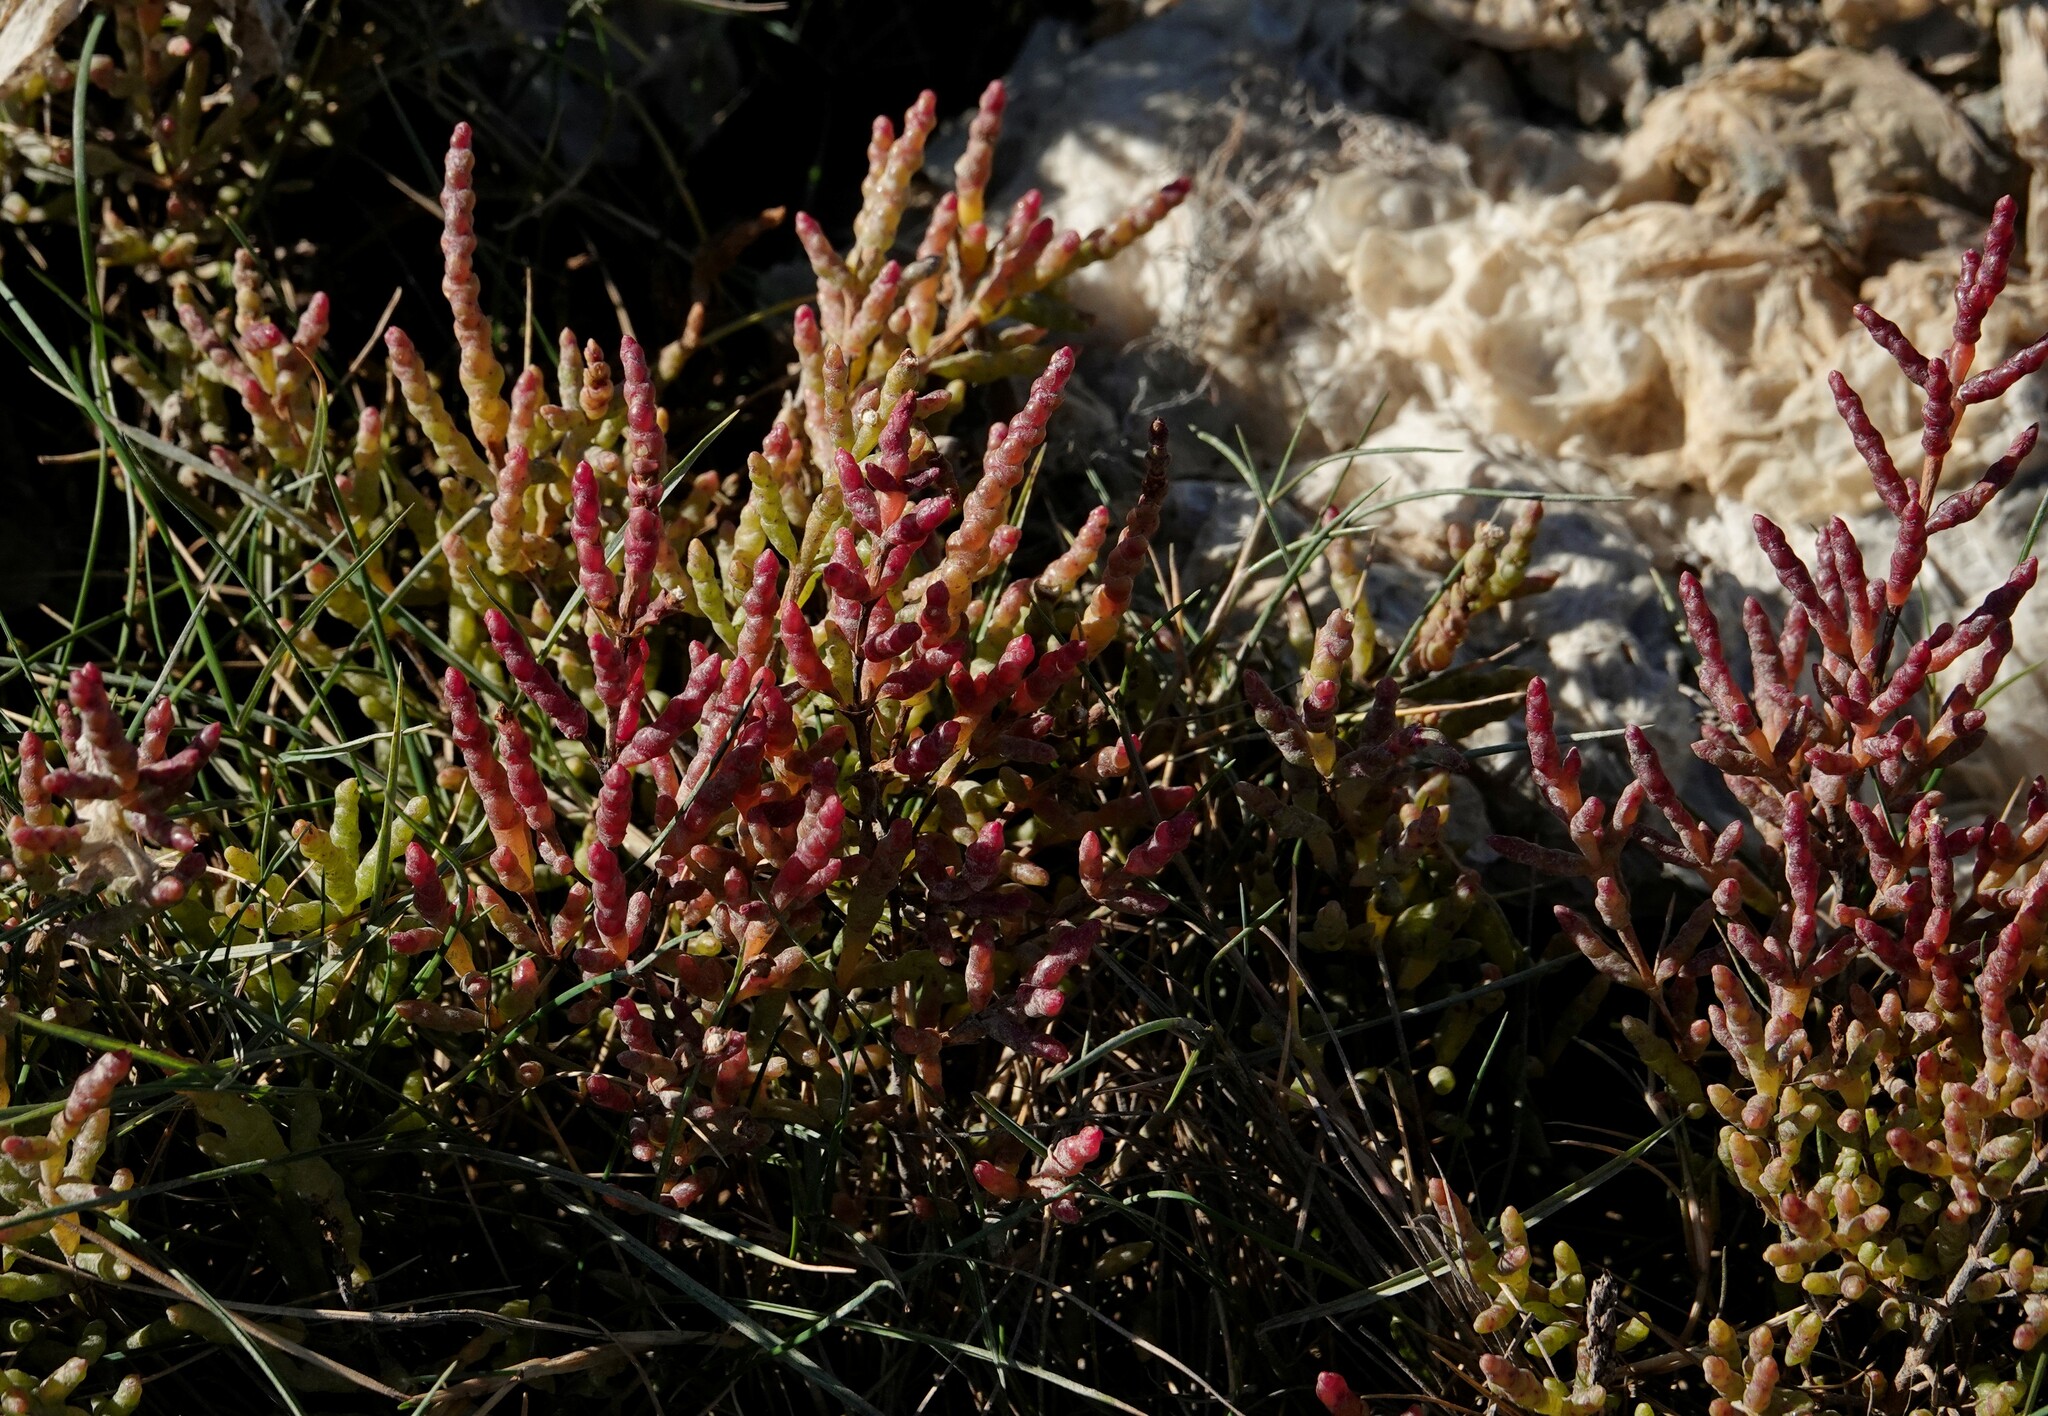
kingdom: Plantae
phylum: Tracheophyta
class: Magnoliopsida
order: Caryophyllales
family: Amaranthaceae
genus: Salicornia
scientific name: Salicornia europaea
